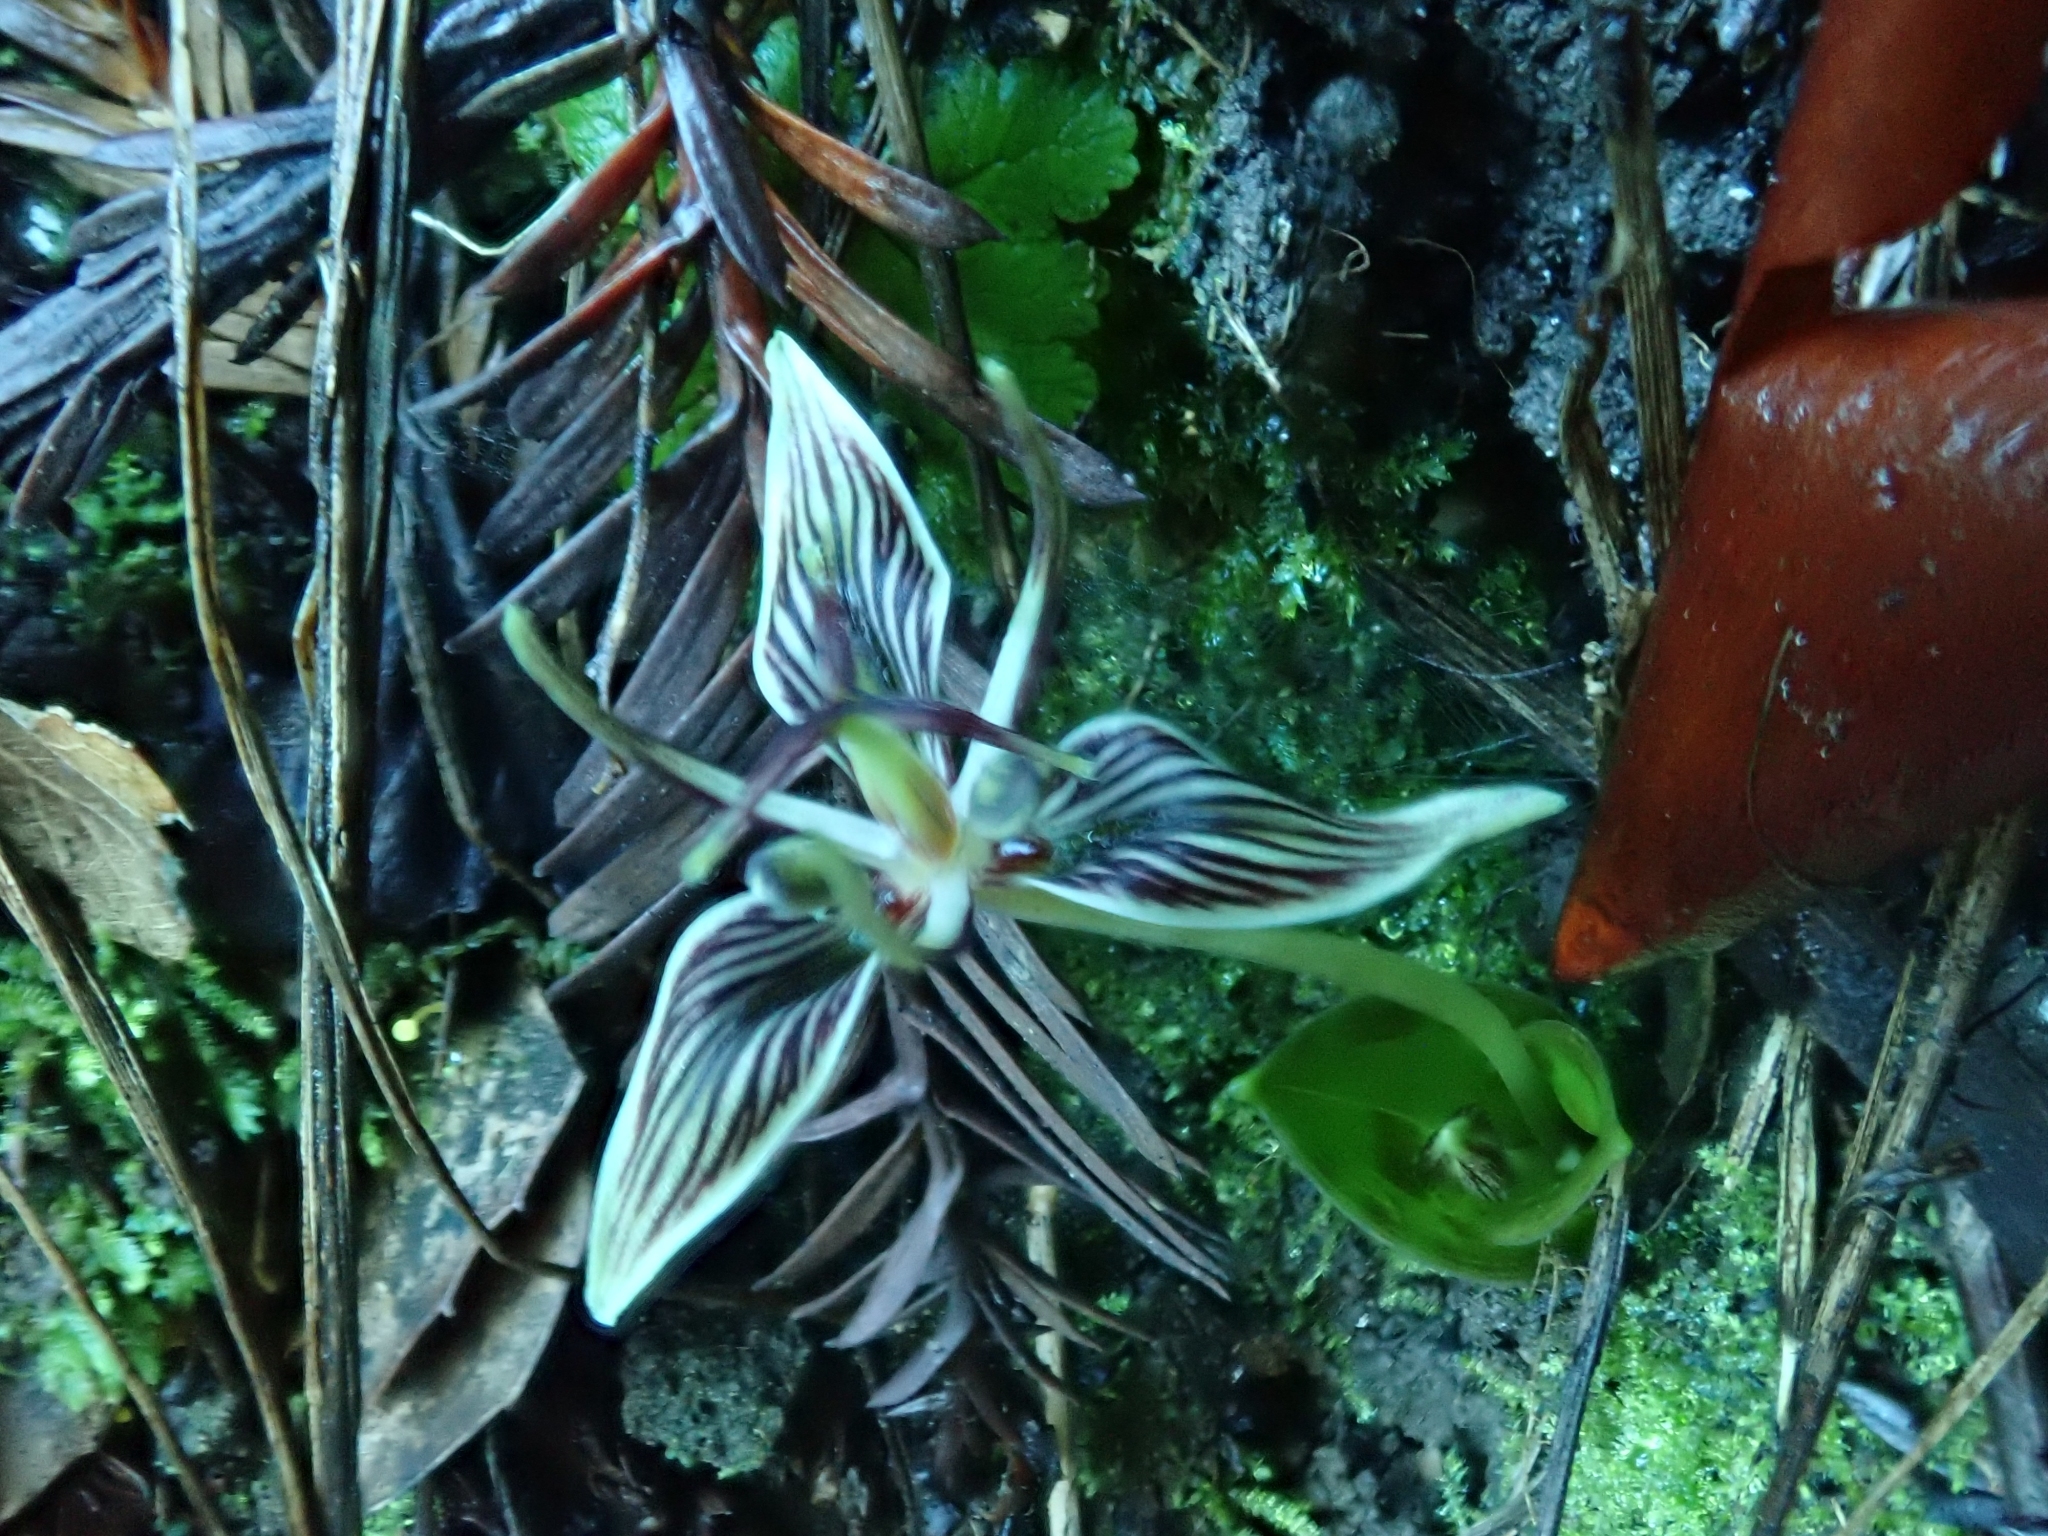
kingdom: Plantae
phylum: Tracheophyta
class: Liliopsida
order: Liliales
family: Liliaceae
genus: Scoliopus
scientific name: Scoliopus bigelovii
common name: Foetid adder's-tongue
